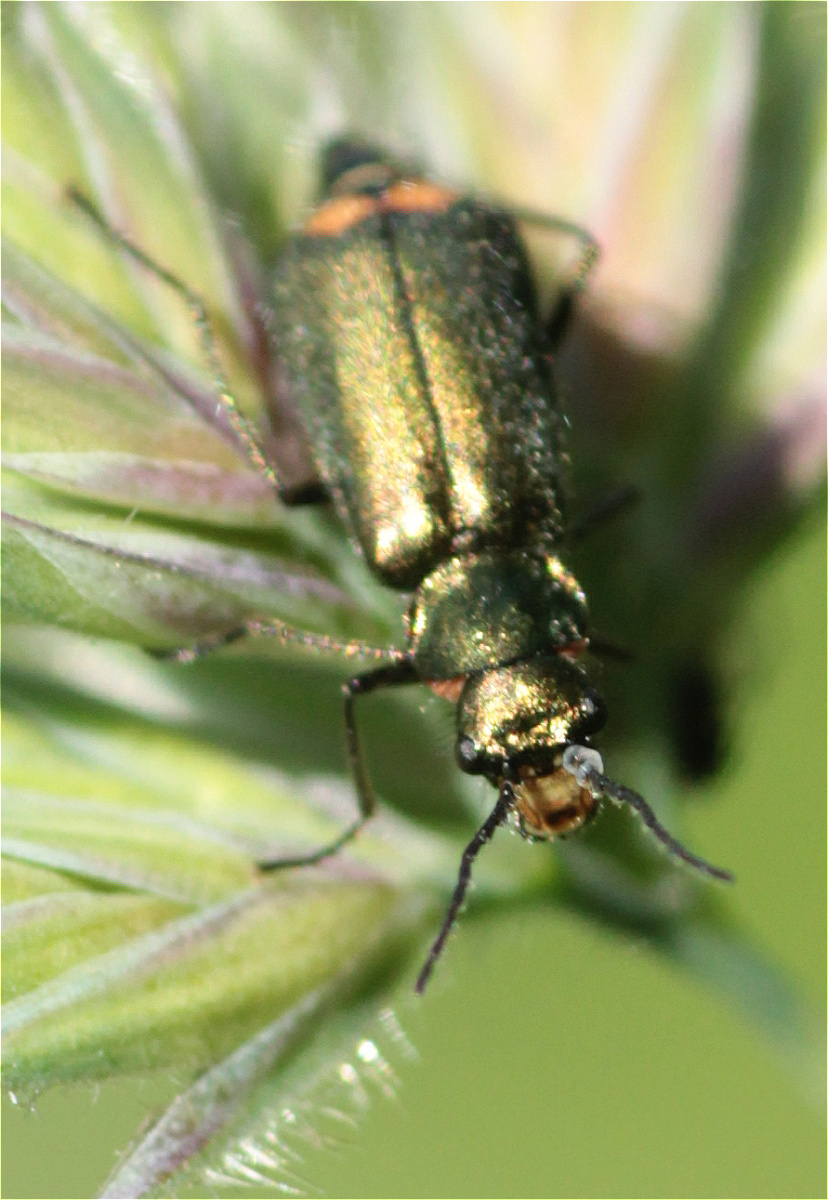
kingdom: Animalia
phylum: Arthropoda
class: Insecta
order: Coleoptera
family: Melyridae
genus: Malachius
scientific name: Malachius bipustulatus
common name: Malachite beetle
